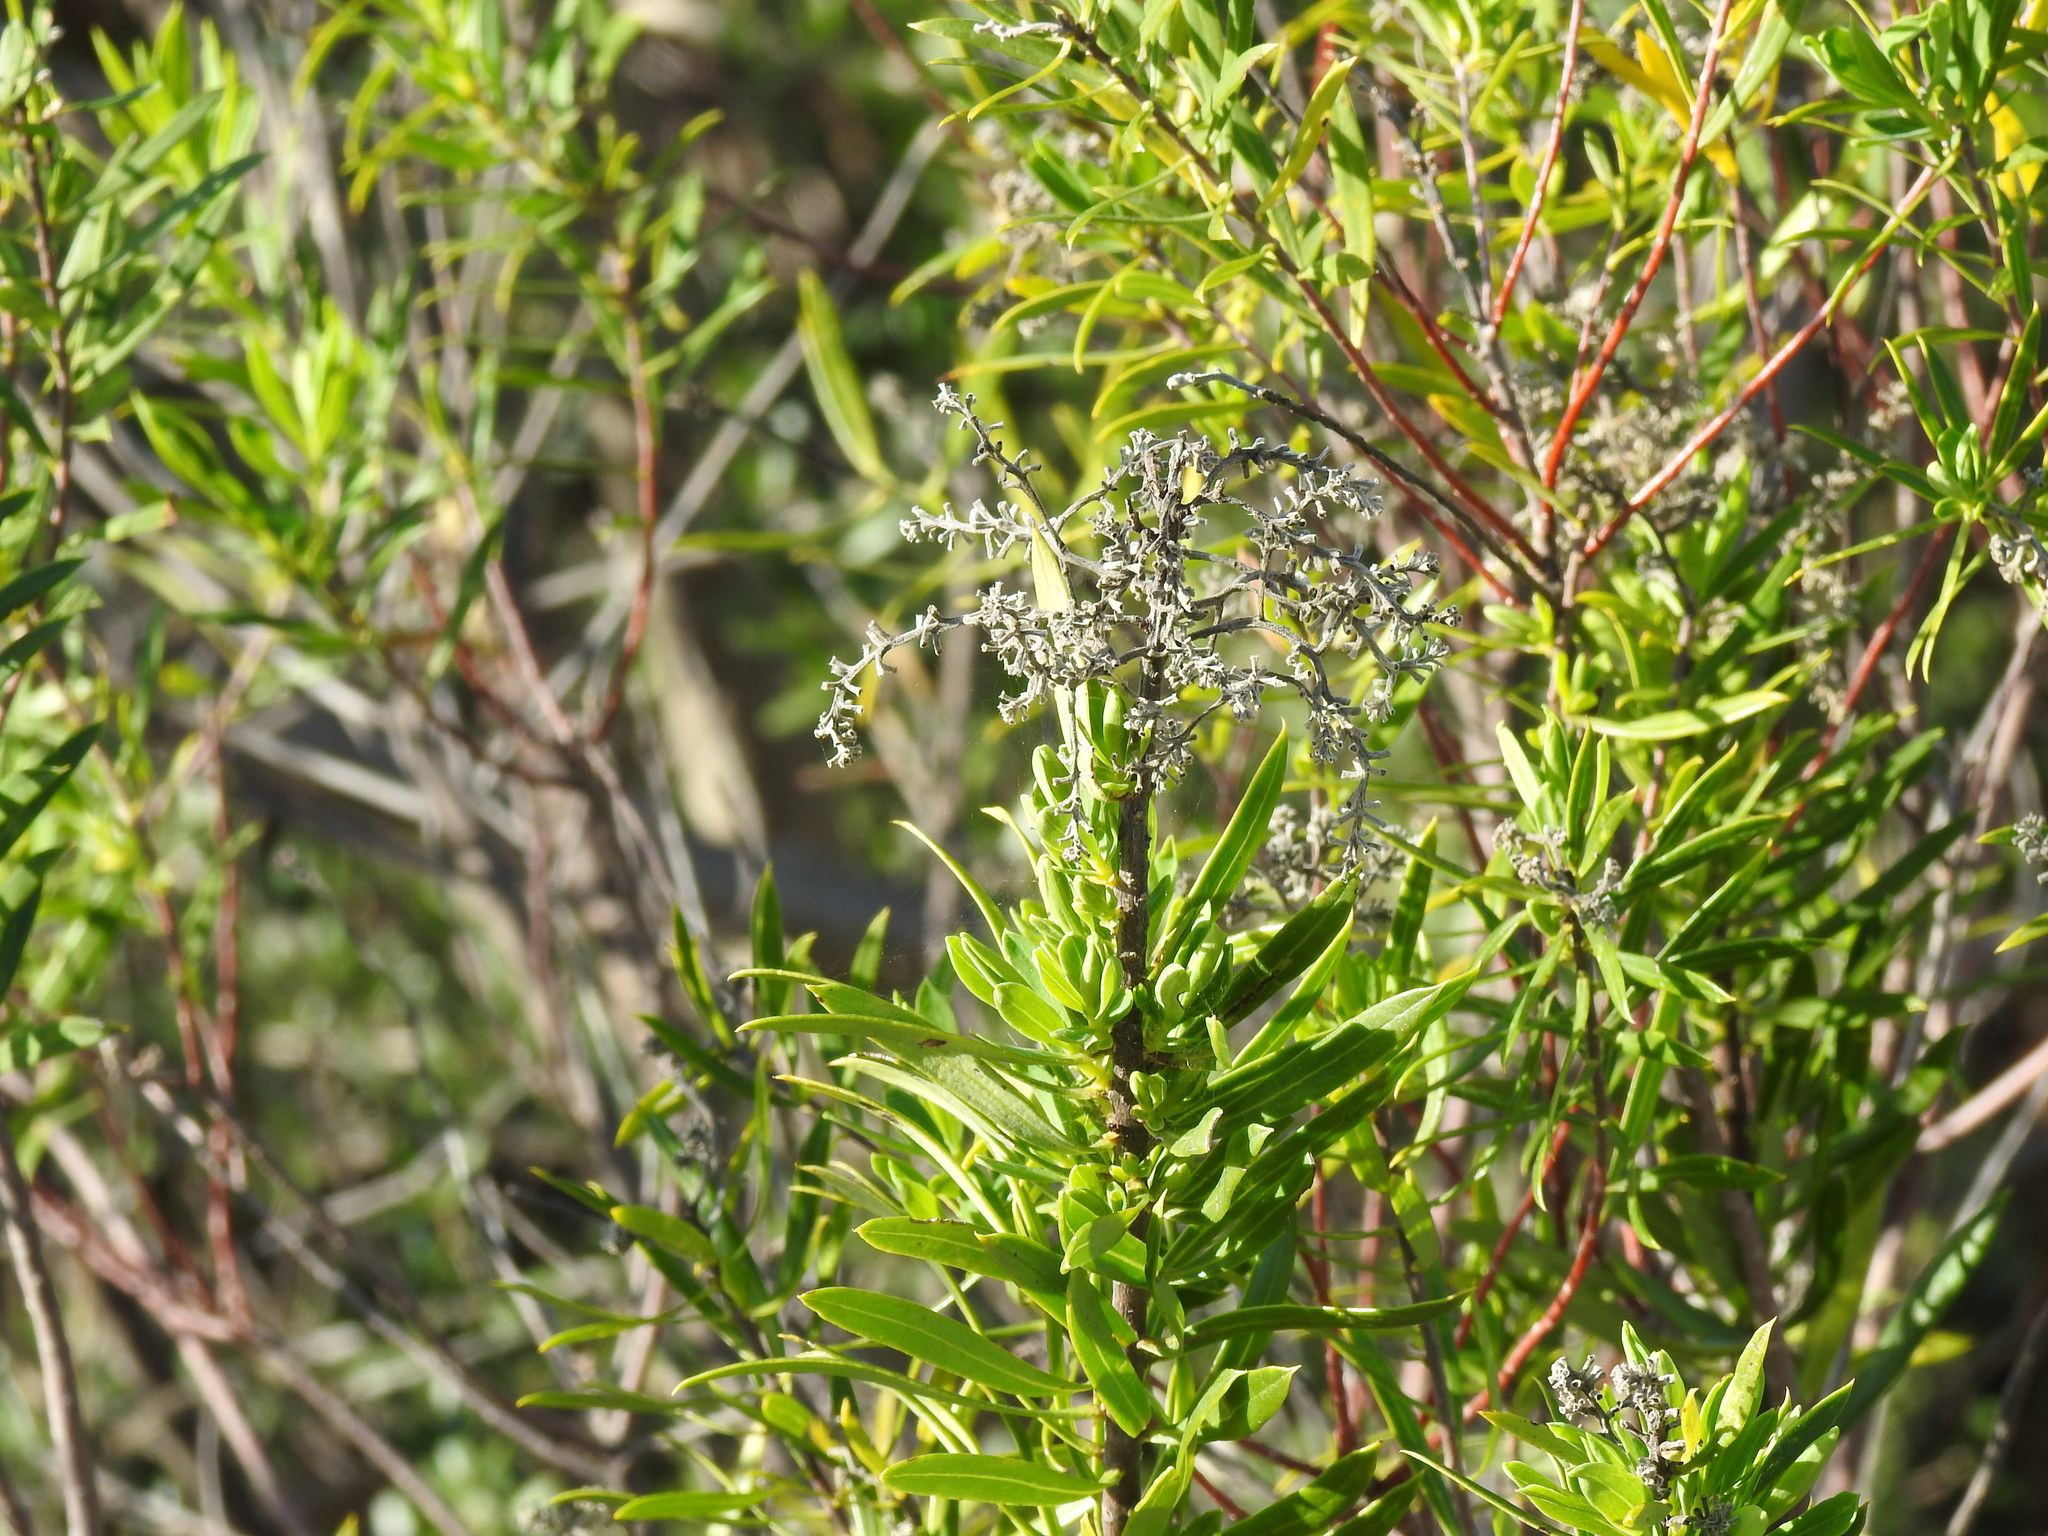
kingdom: Plantae
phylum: Tracheophyta
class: Magnoliopsida
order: Malvales
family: Thymelaeaceae
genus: Daphne
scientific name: Daphne gnidium
